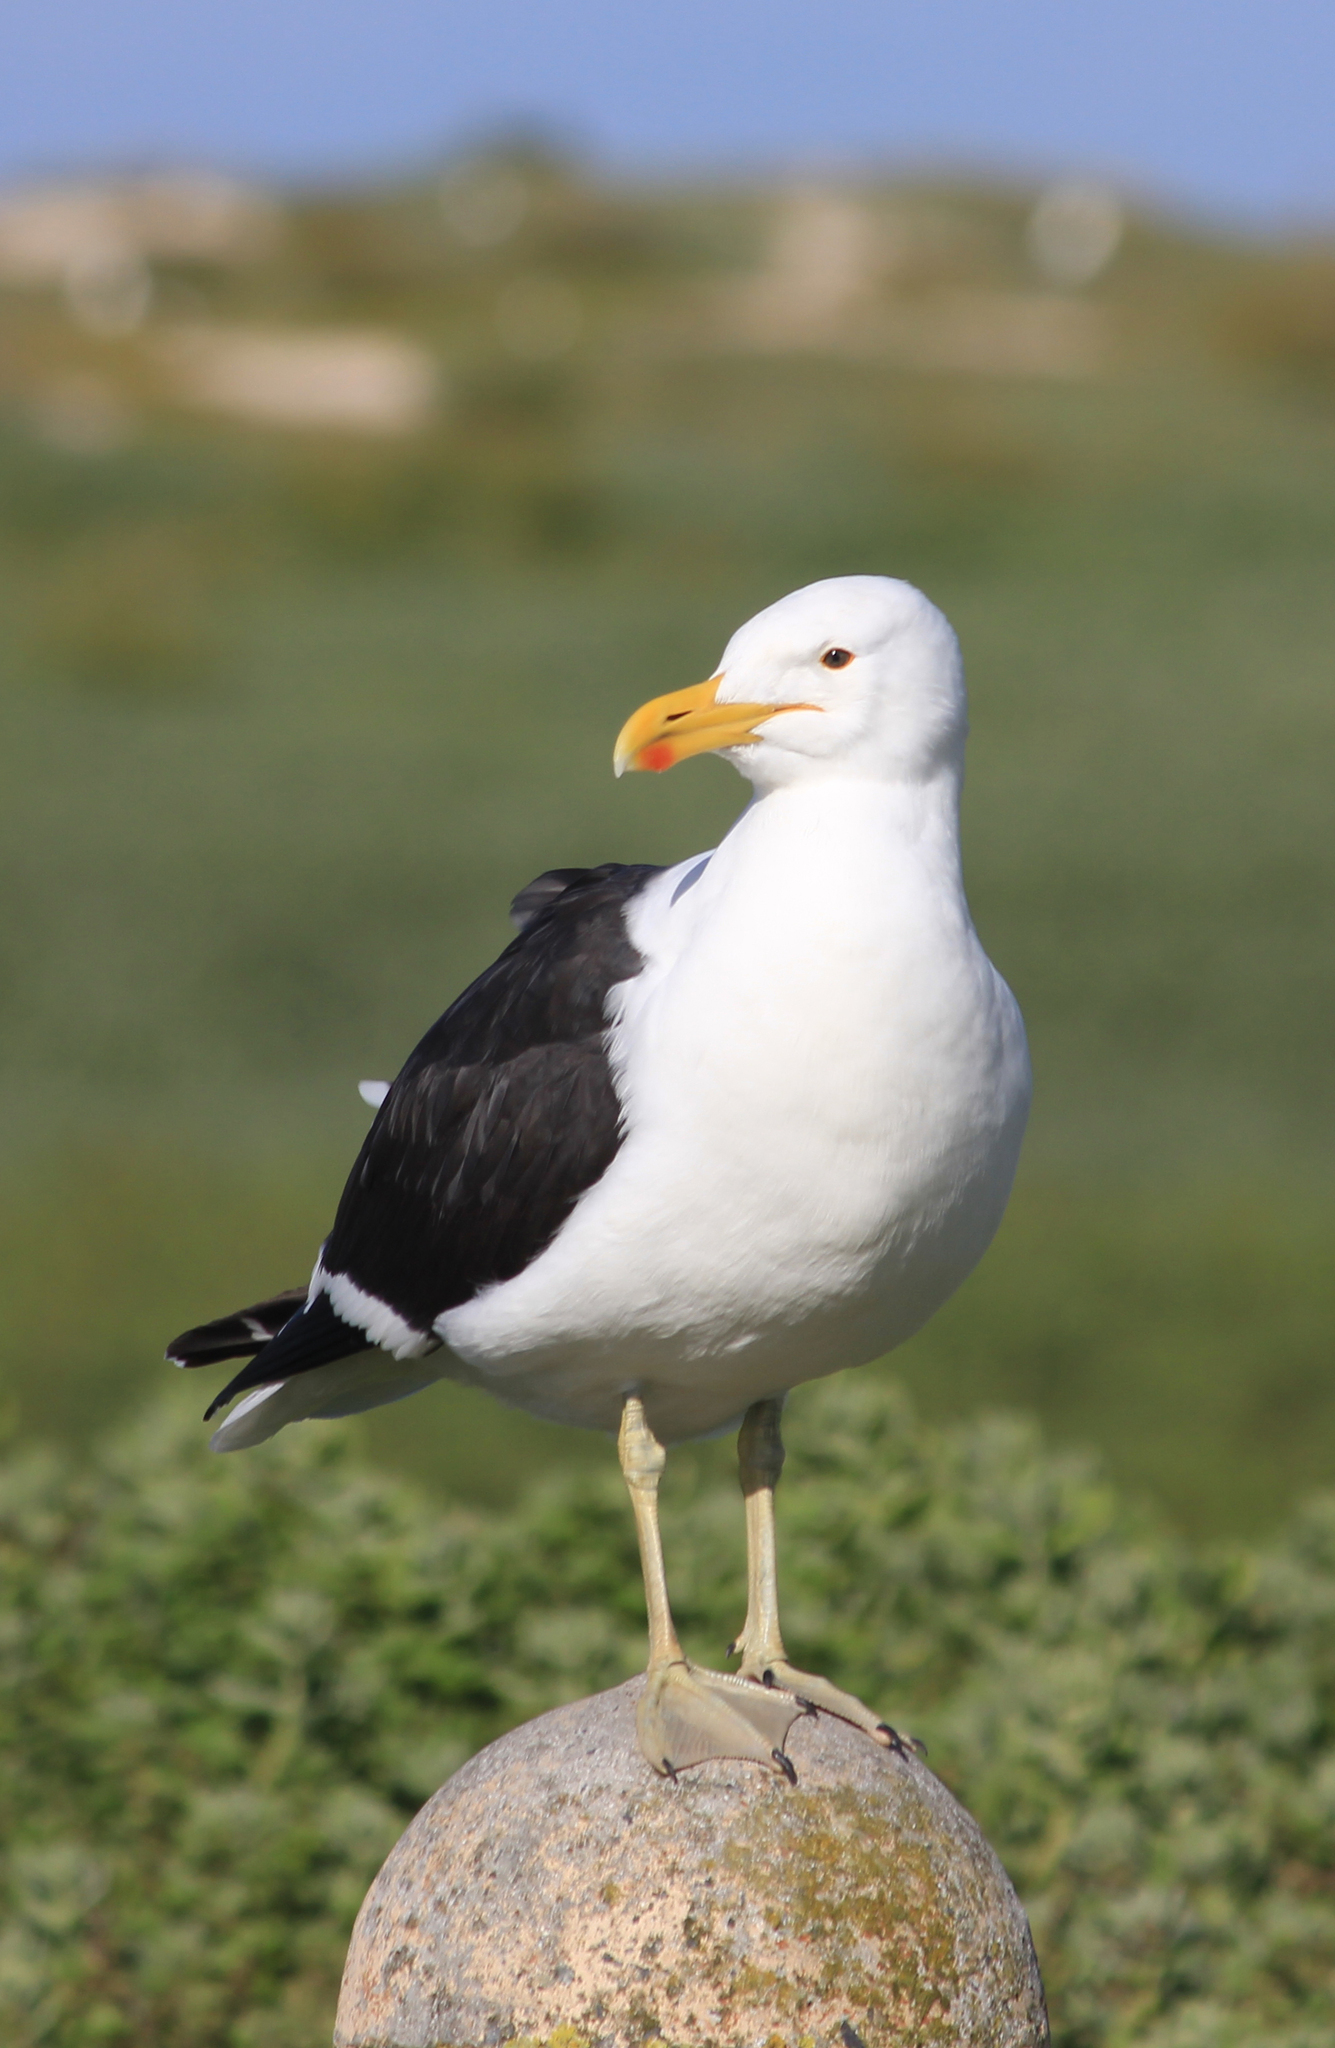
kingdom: Animalia
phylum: Chordata
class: Aves
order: Charadriiformes
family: Laridae
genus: Larus
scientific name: Larus dominicanus
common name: Kelp gull
